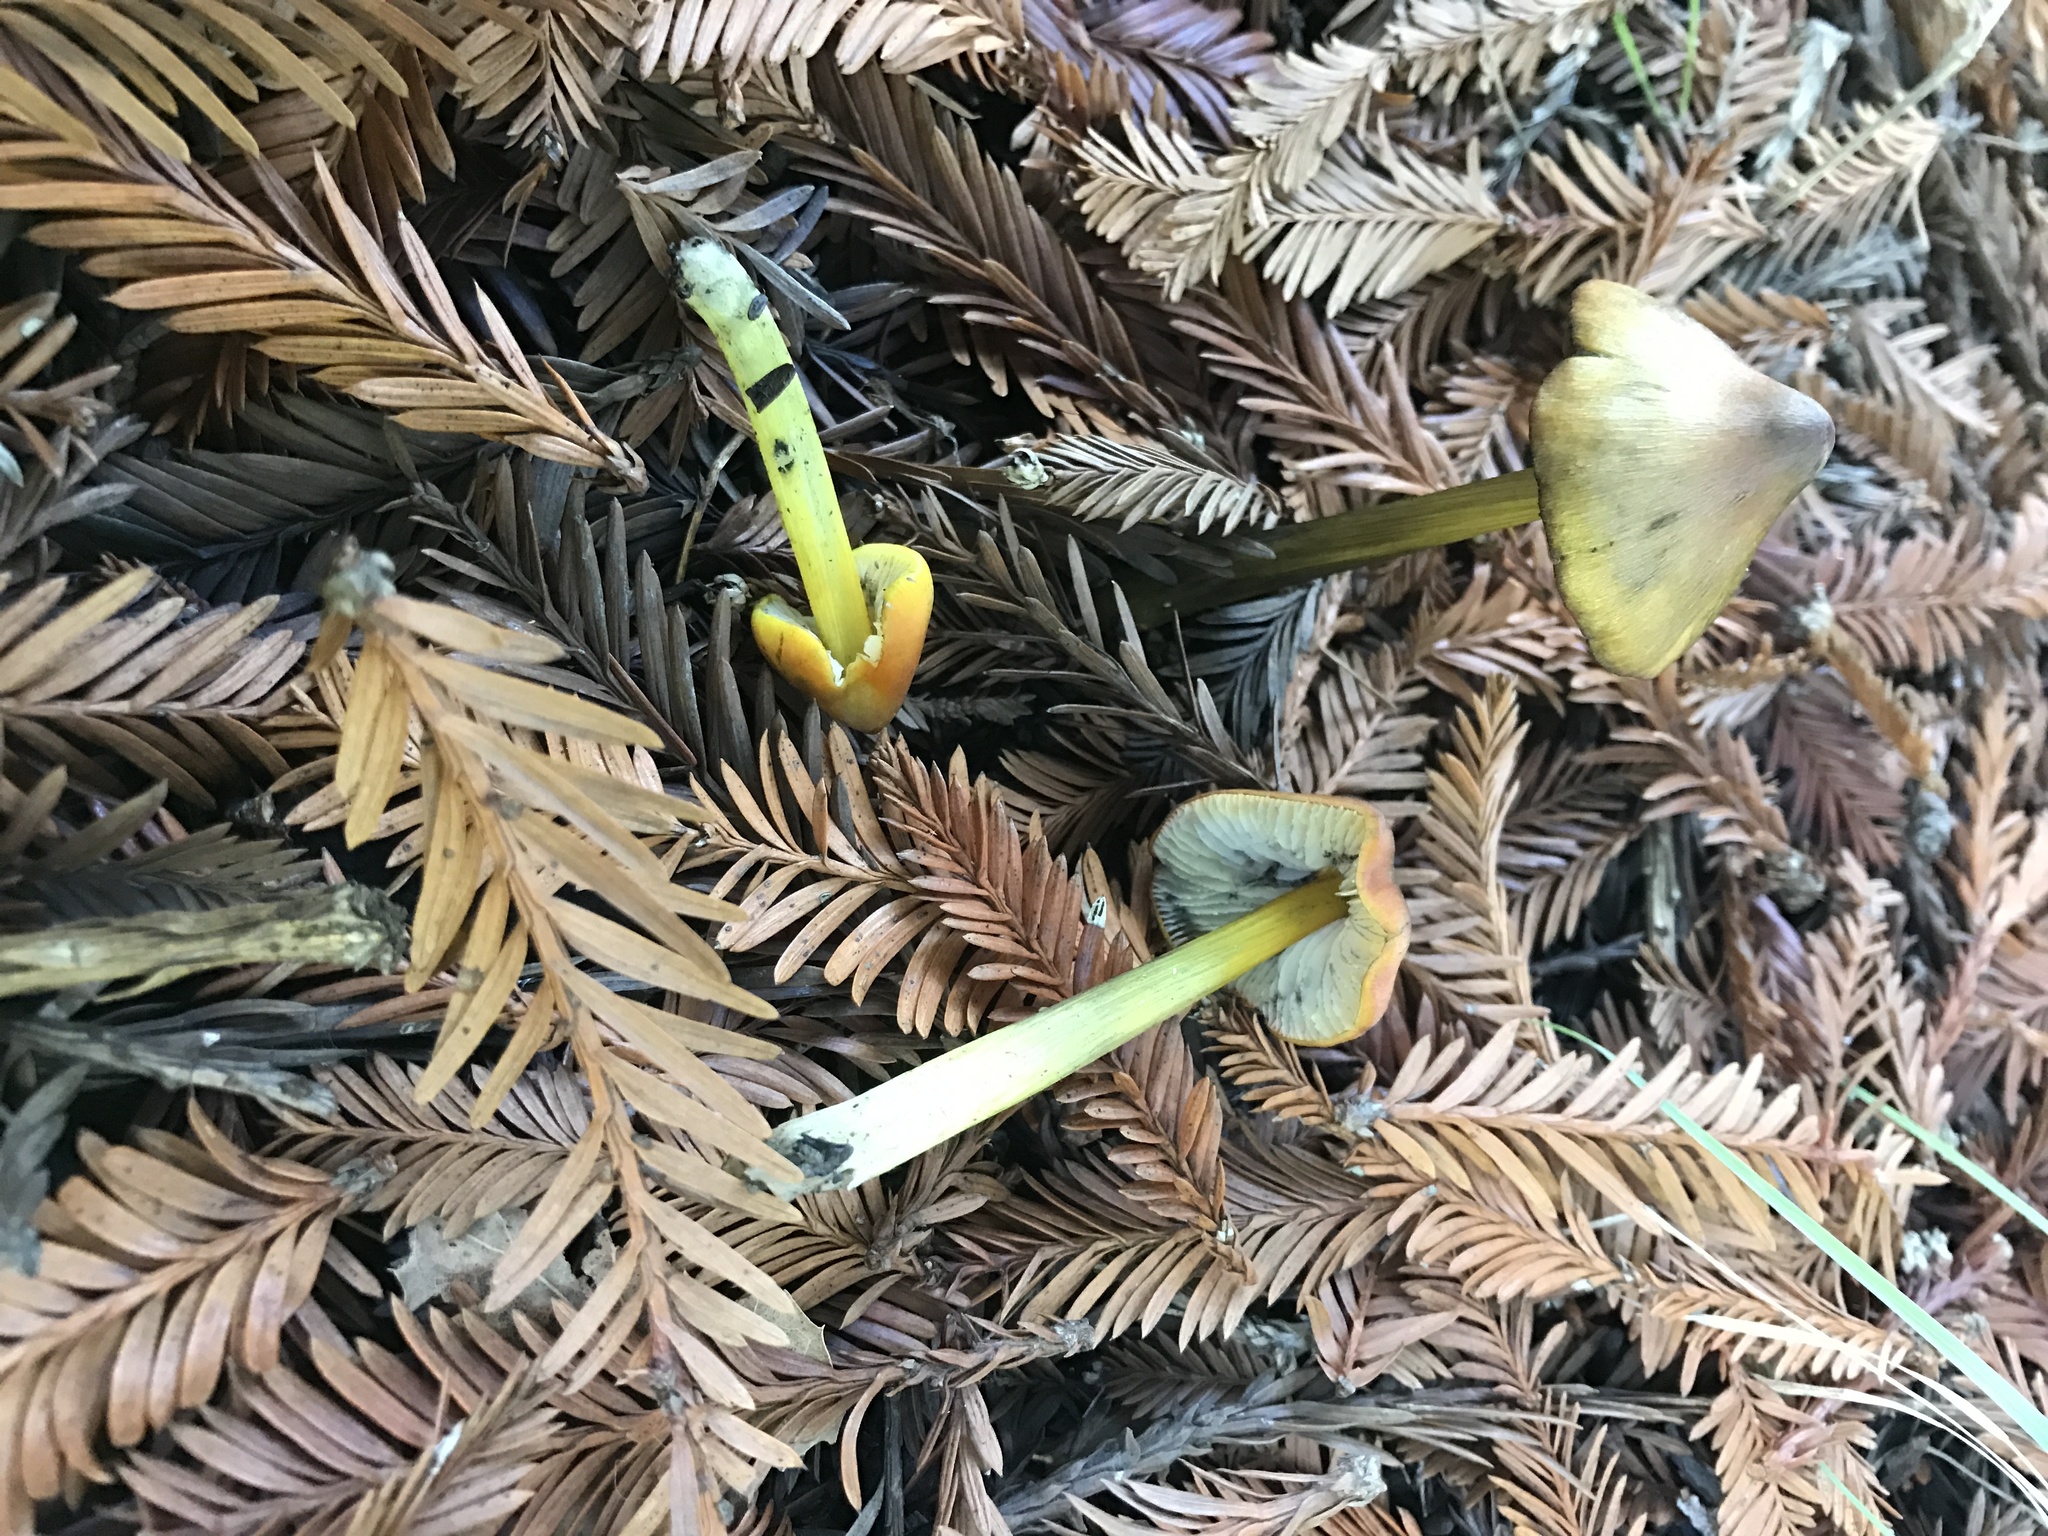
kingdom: Fungi
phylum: Basidiomycota
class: Agaricomycetes
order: Agaricales
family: Hygrophoraceae
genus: Hygrocybe
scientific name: Hygrocybe singeri
